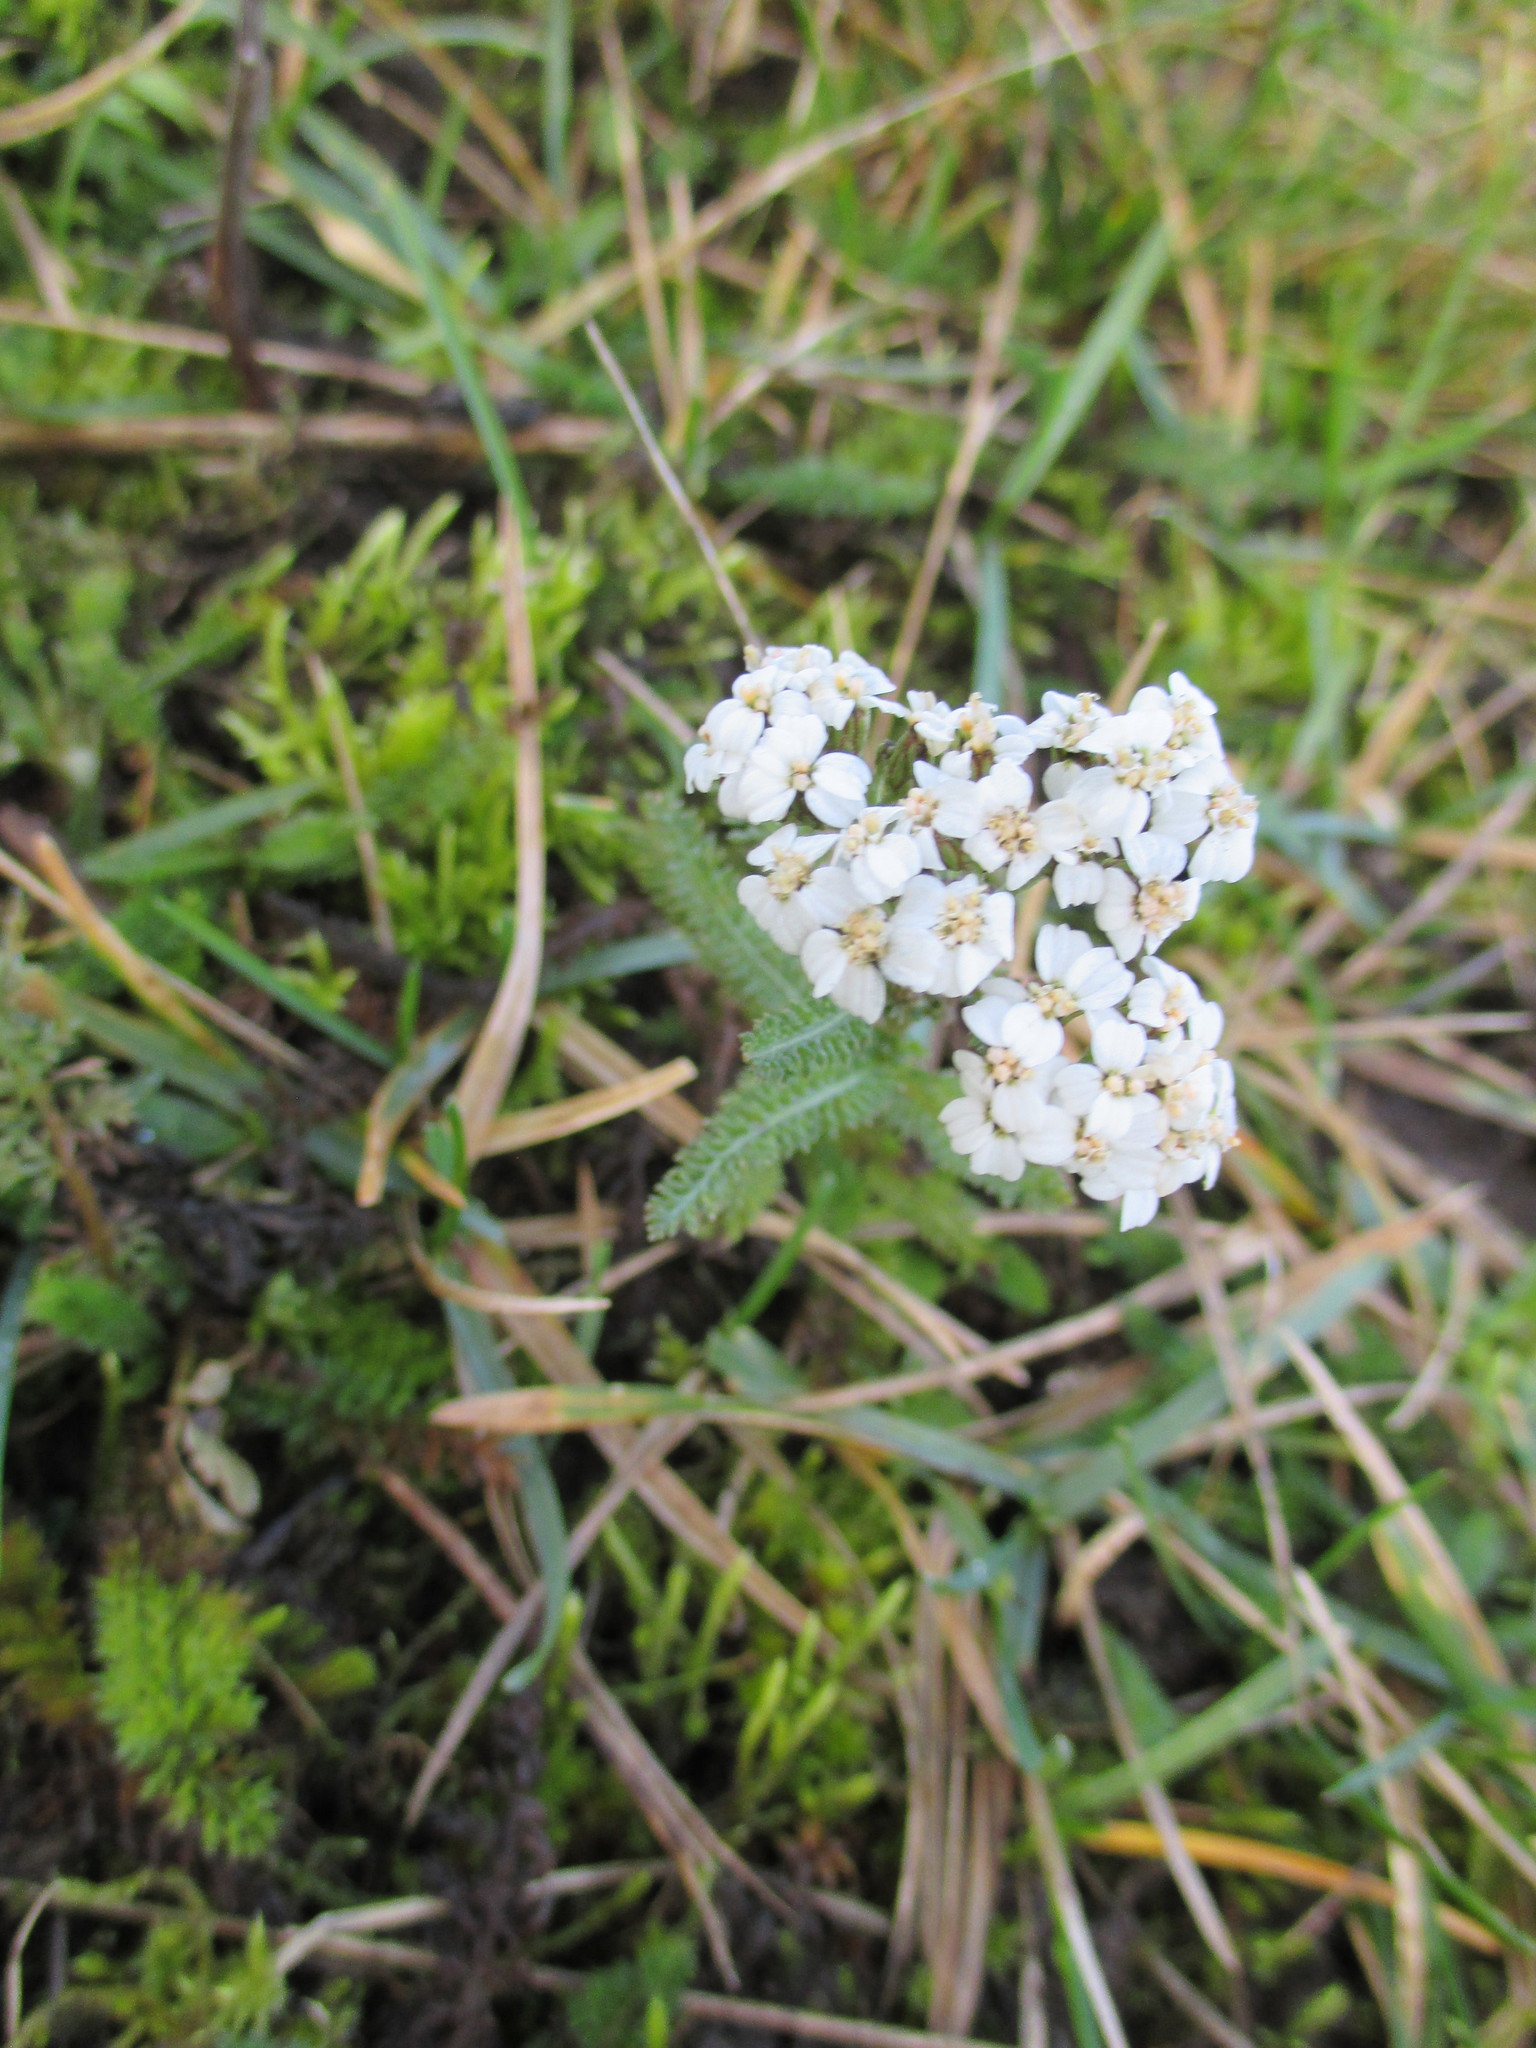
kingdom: Plantae
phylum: Tracheophyta
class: Magnoliopsida
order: Asterales
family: Asteraceae
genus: Achillea
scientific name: Achillea millefolium
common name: Yarrow
